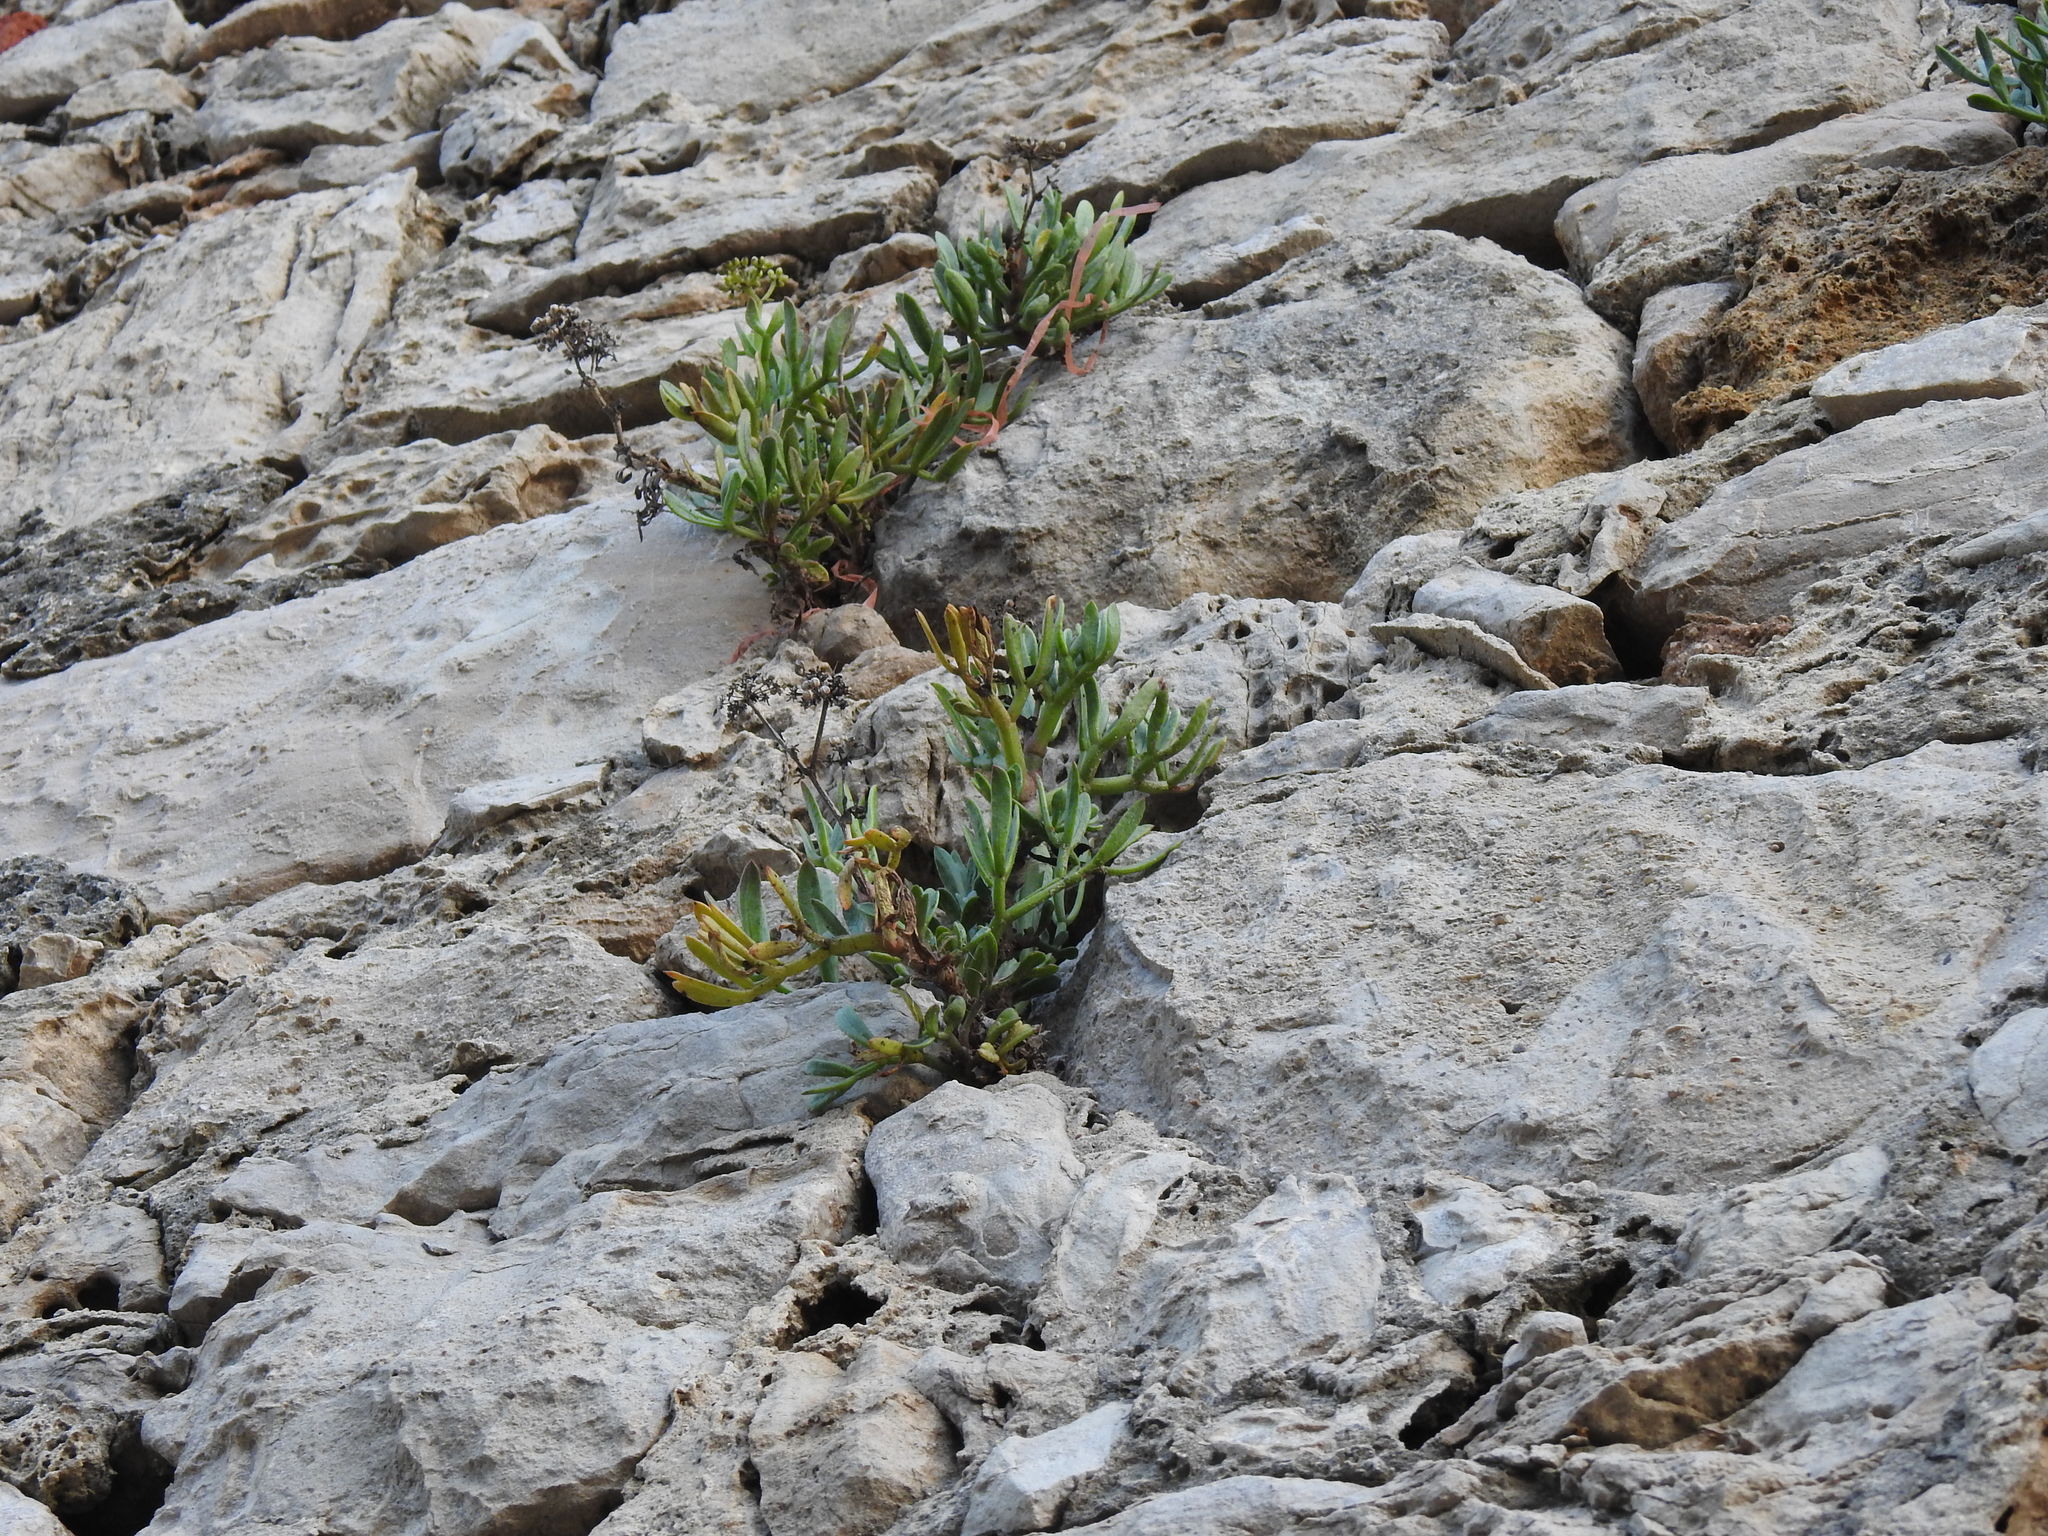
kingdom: Plantae
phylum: Tracheophyta
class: Magnoliopsida
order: Apiales
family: Apiaceae
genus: Crithmum
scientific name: Crithmum maritimum
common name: Rock samphire
